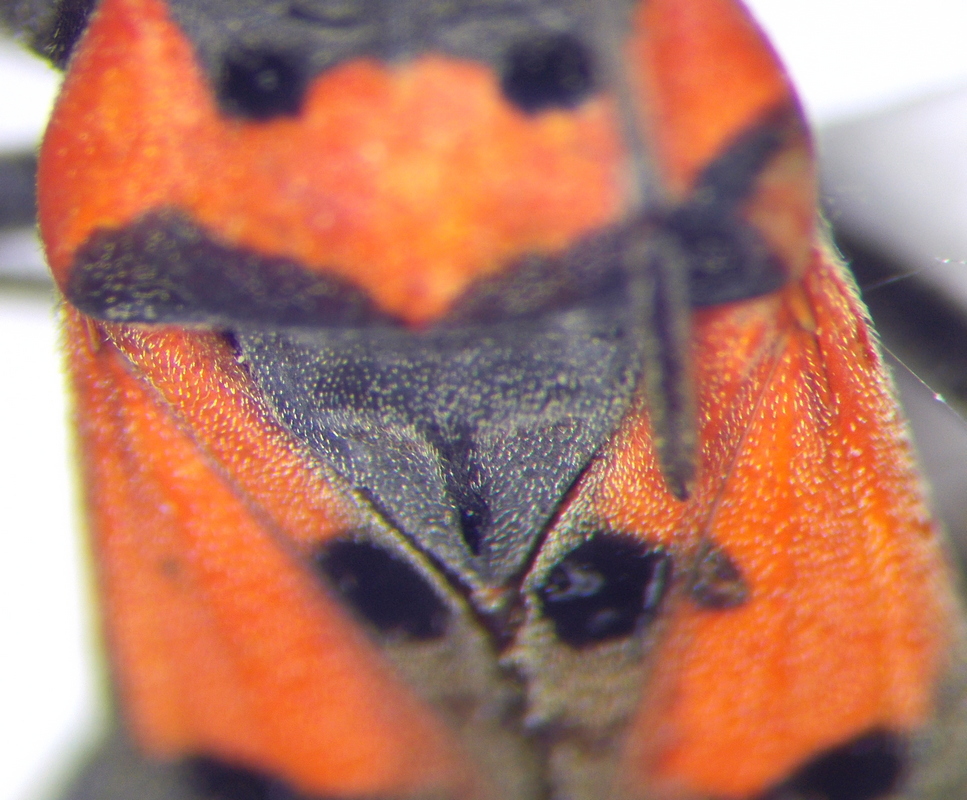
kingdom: Animalia
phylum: Arthropoda
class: Insecta
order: Hemiptera
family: Lygaeidae
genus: Lygaeus
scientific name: Lygaeus equestris
